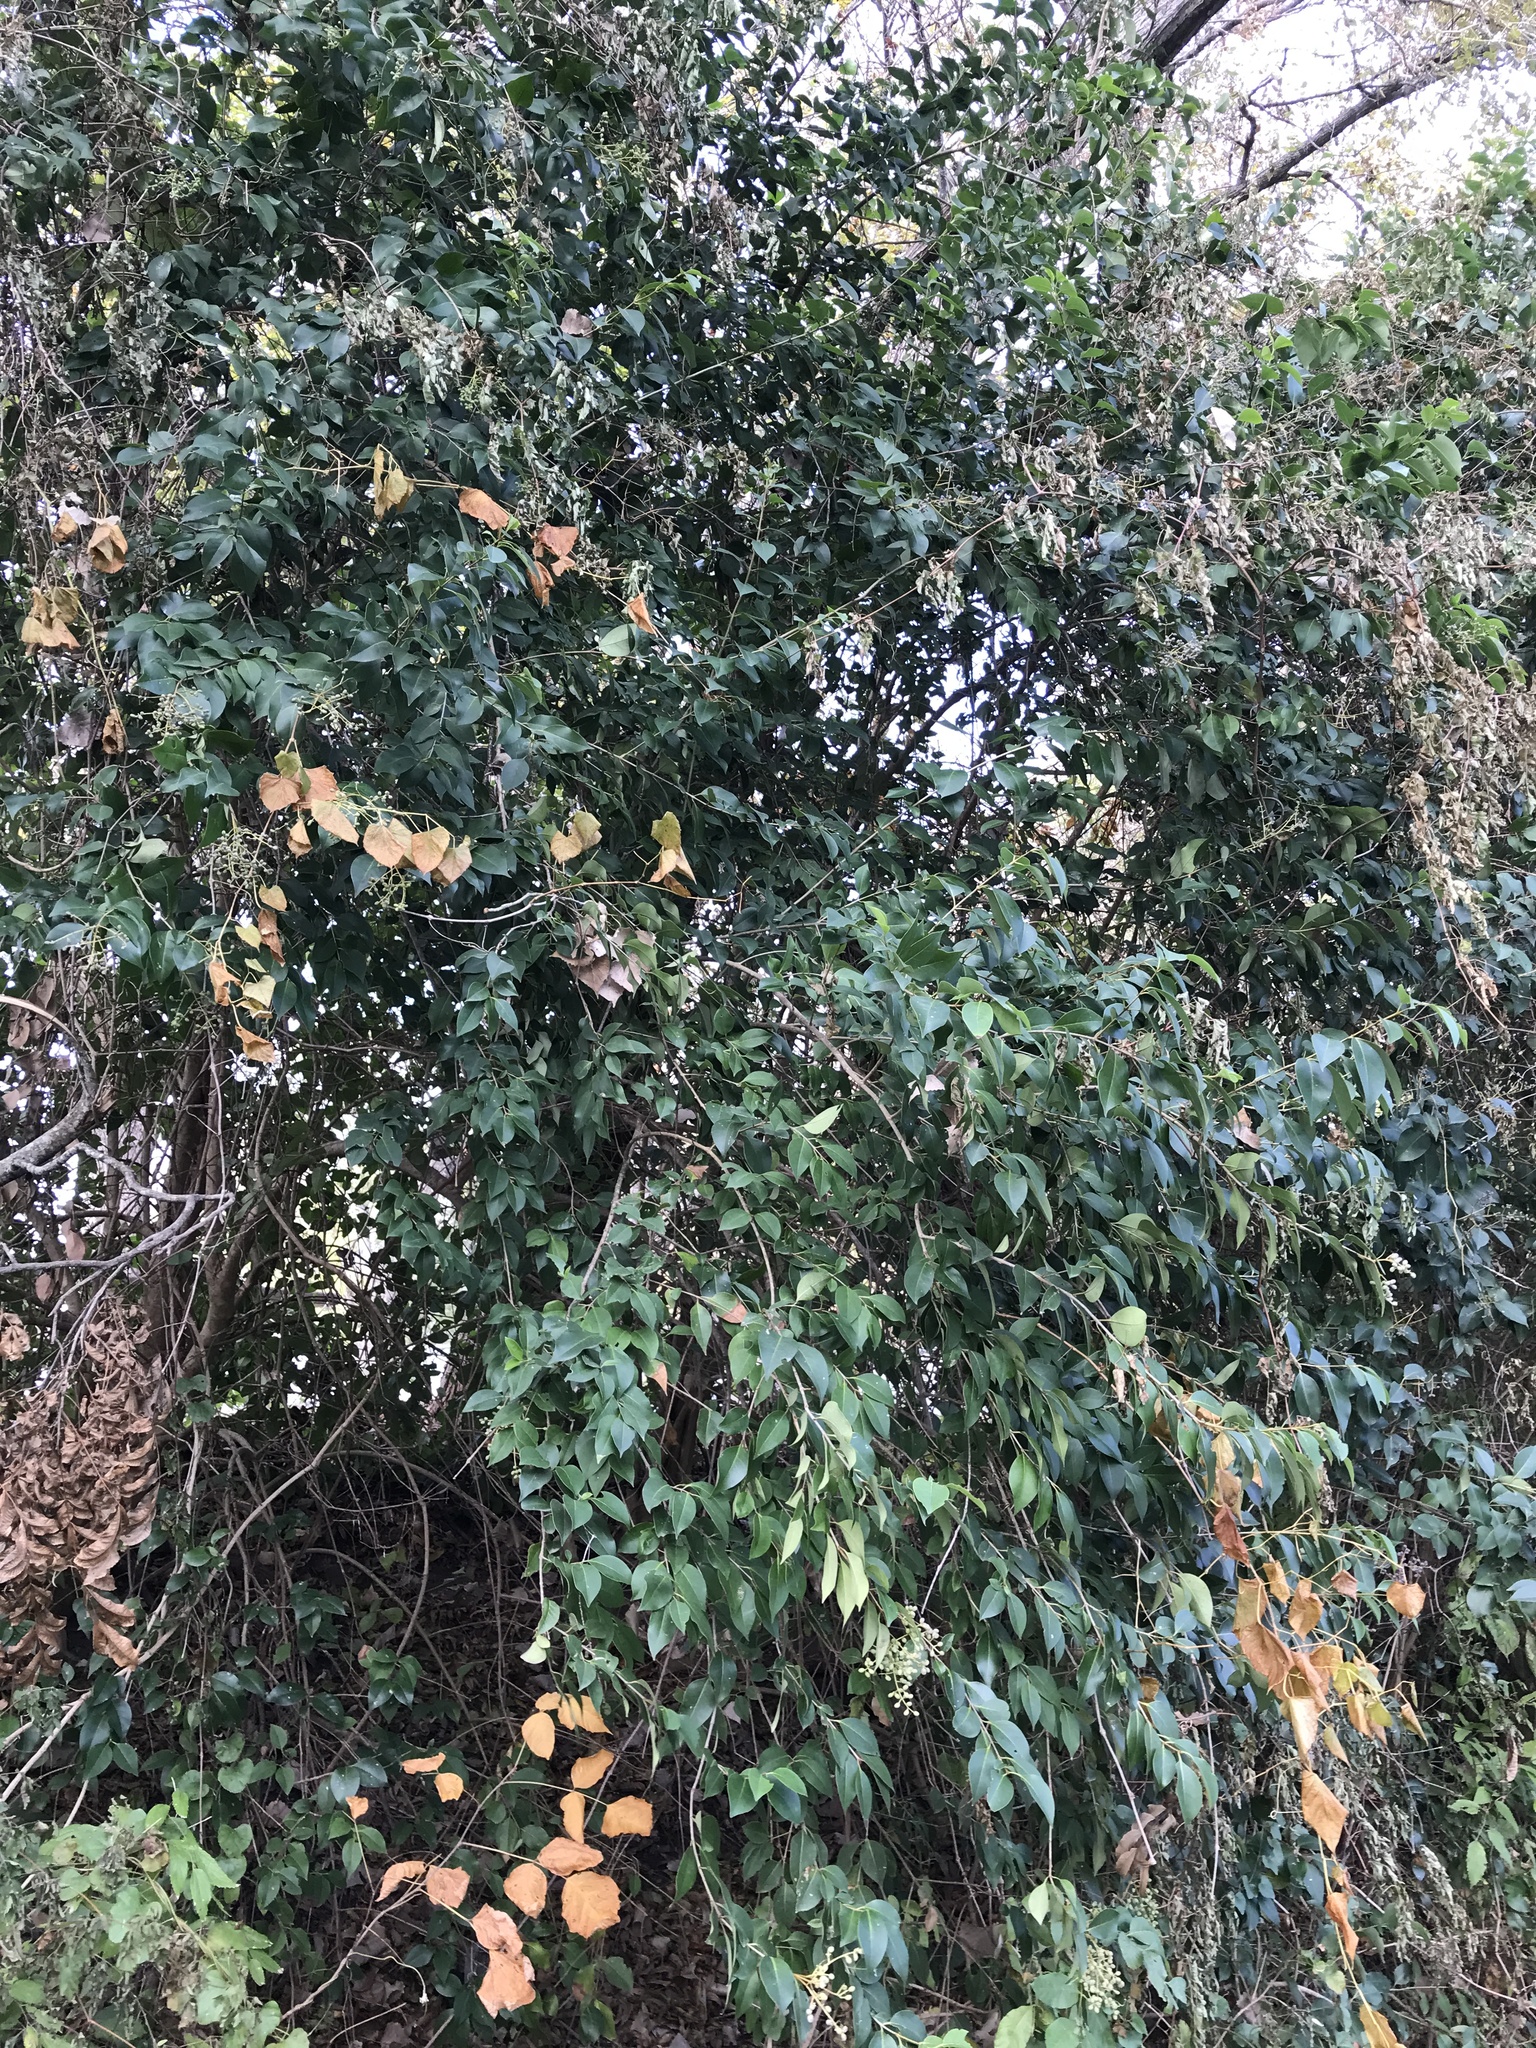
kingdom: Plantae
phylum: Tracheophyta
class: Magnoliopsida
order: Lamiales
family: Oleaceae
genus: Ligustrum
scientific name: Ligustrum lucidum
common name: Glossy privet
